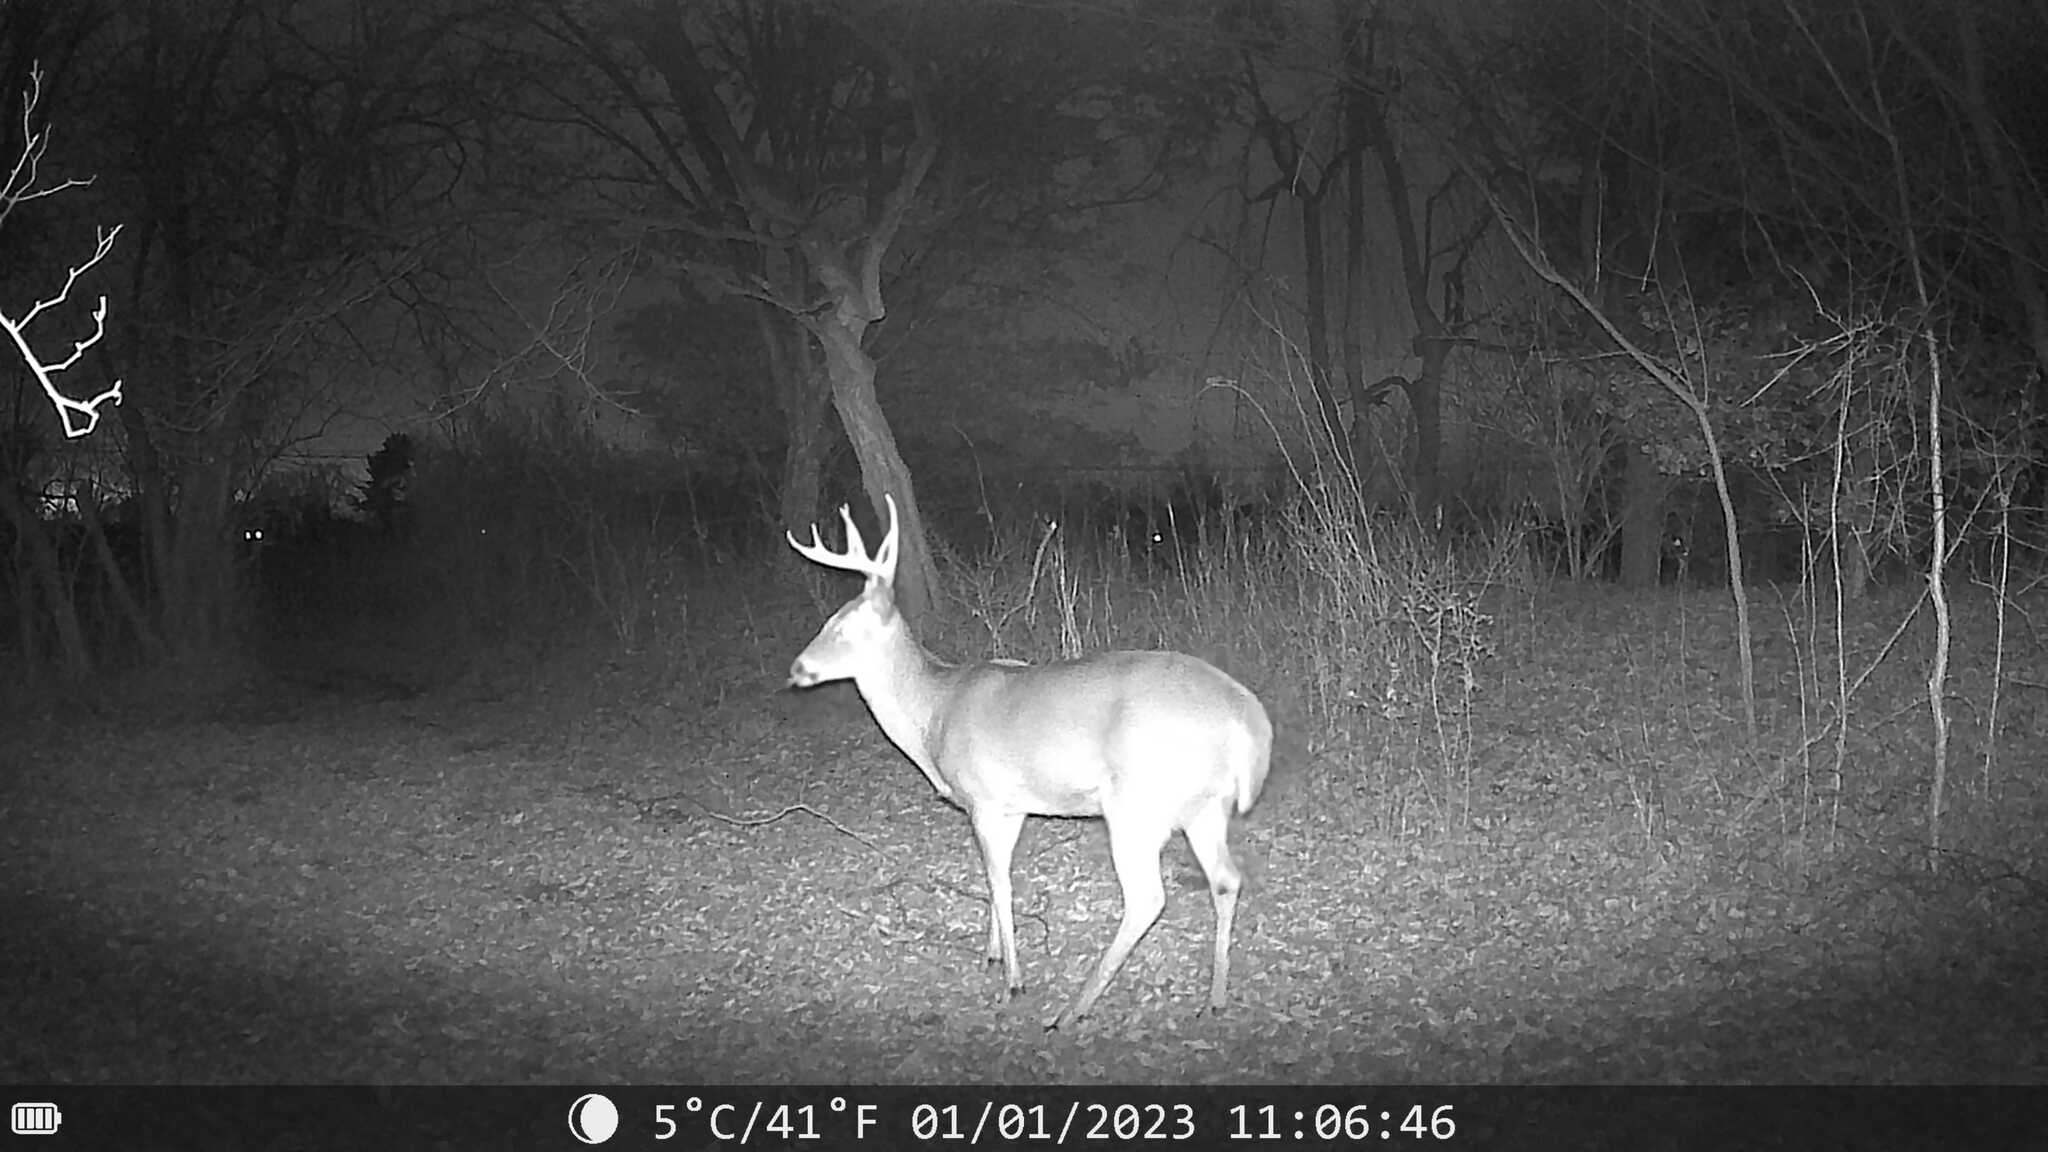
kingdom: Animalia
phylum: Chordata
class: Mammalia
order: Artiodactyla
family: Cervidae
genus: Odocoileus
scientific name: Odocoileus virginianus
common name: White-tailed deer
